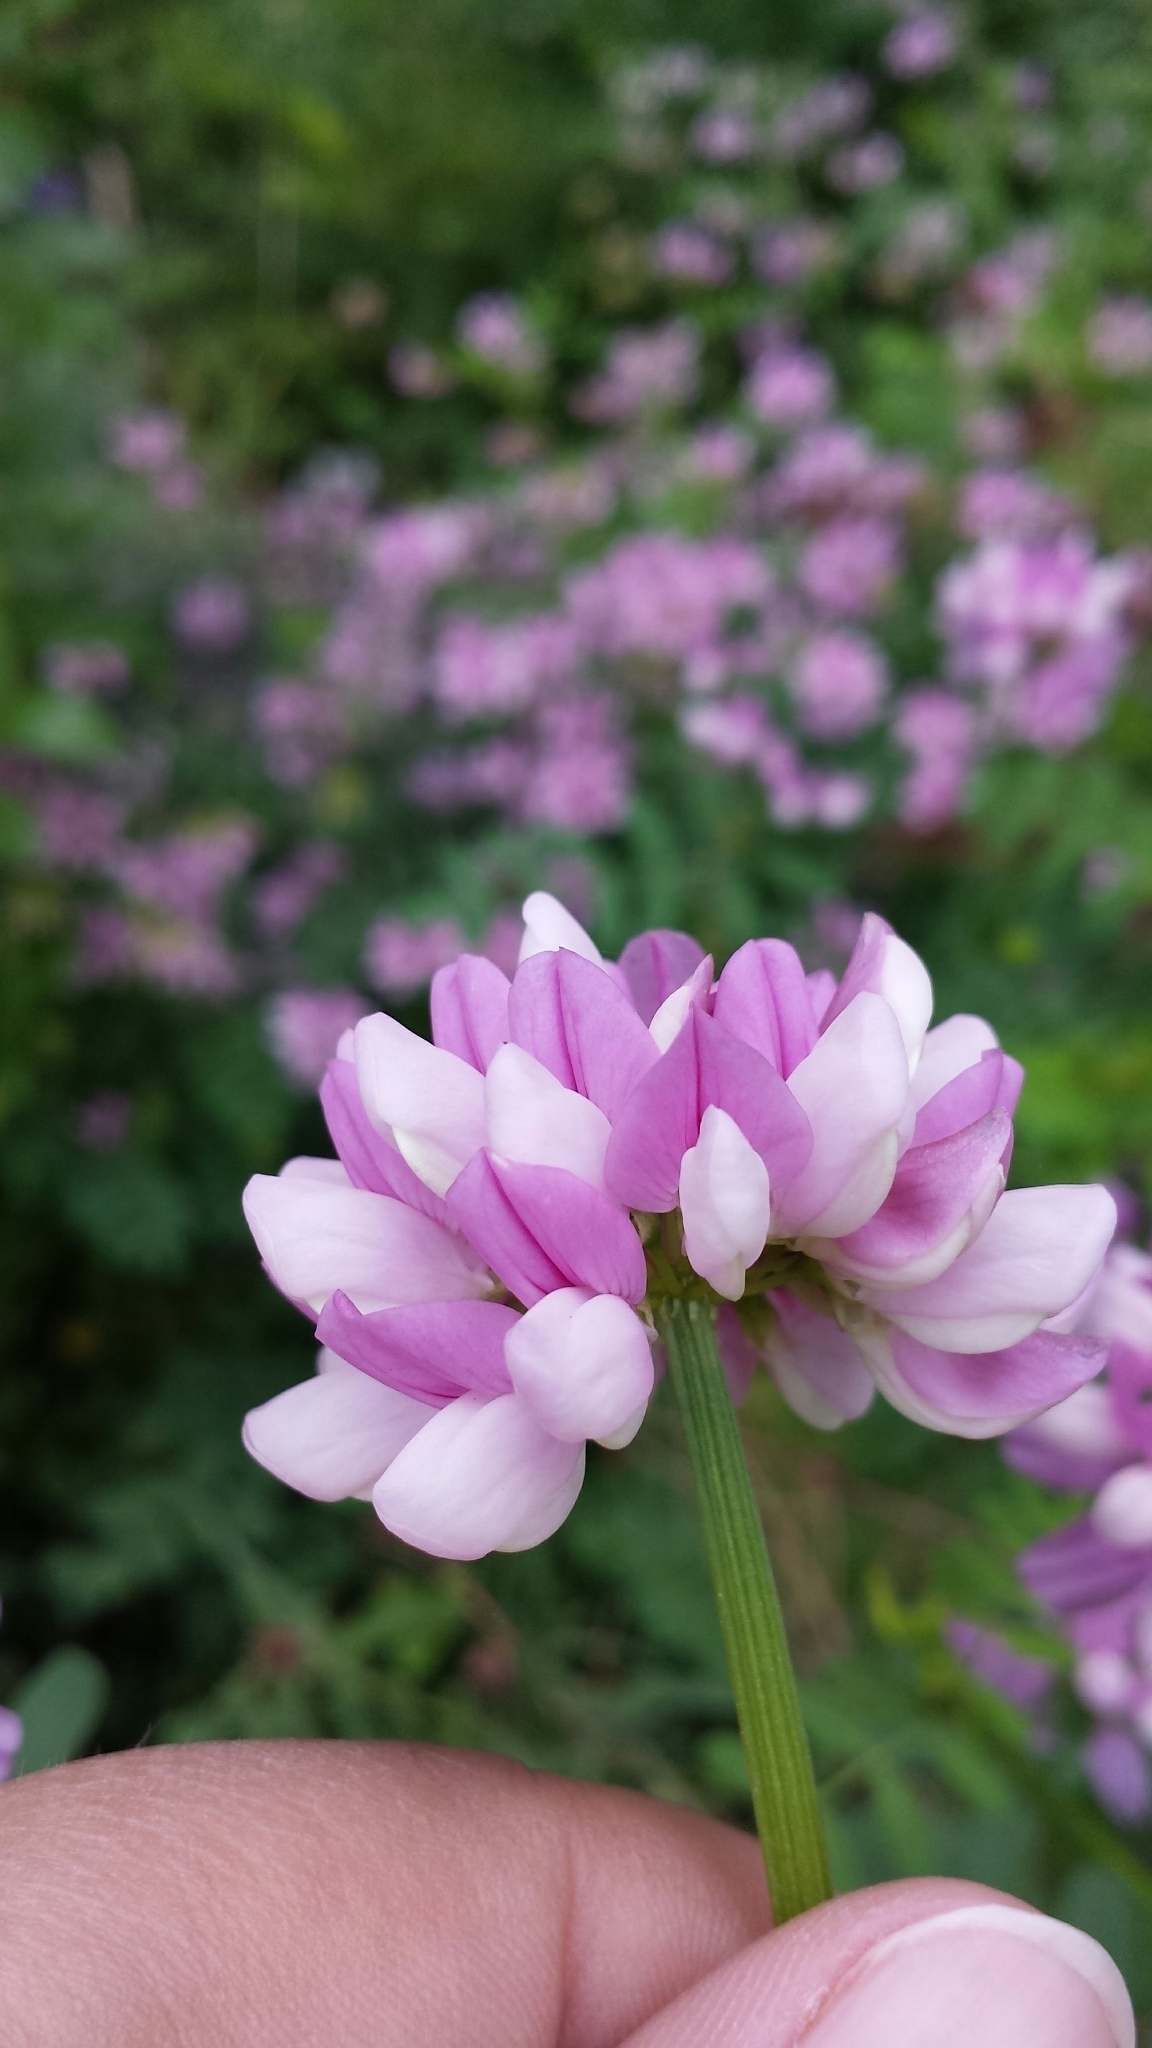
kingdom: Plantae
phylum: Tracheophyta
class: Magnoliopsida
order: Fabales
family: Fabaceae
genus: Coronilla
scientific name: Coronilla varia
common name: Crownvetch
